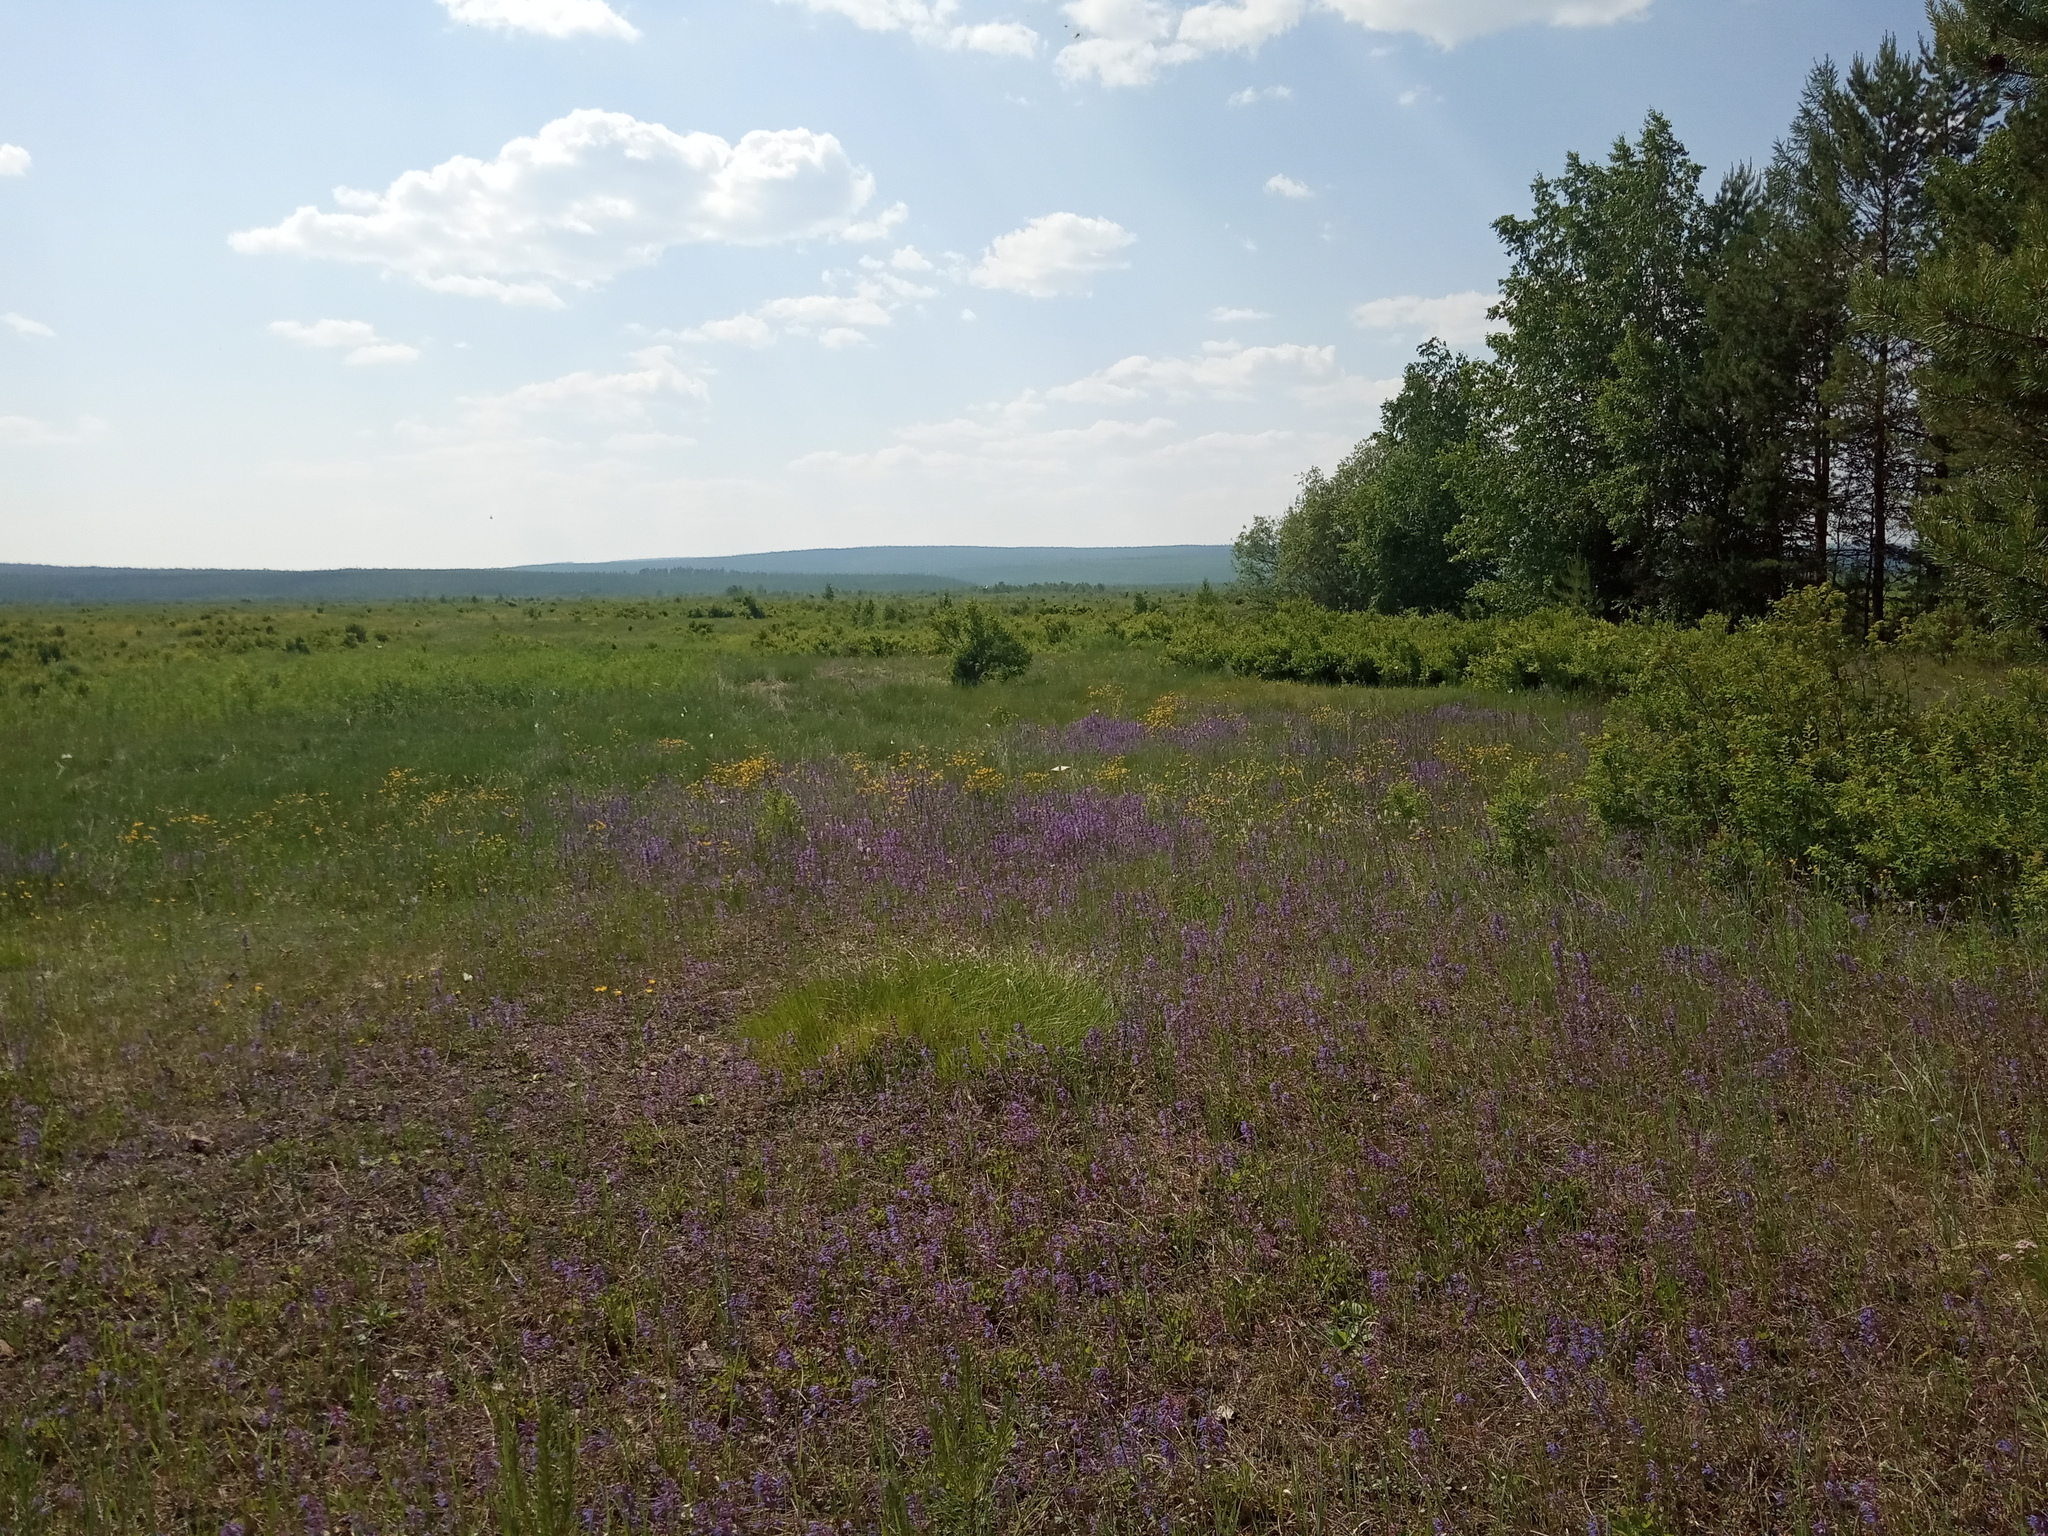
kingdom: Plantae
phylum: Tracheophyta
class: Pinopsida
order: Pinales
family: Pinaceae
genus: Pinus
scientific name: Pinus sylvestris
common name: Scots pine
